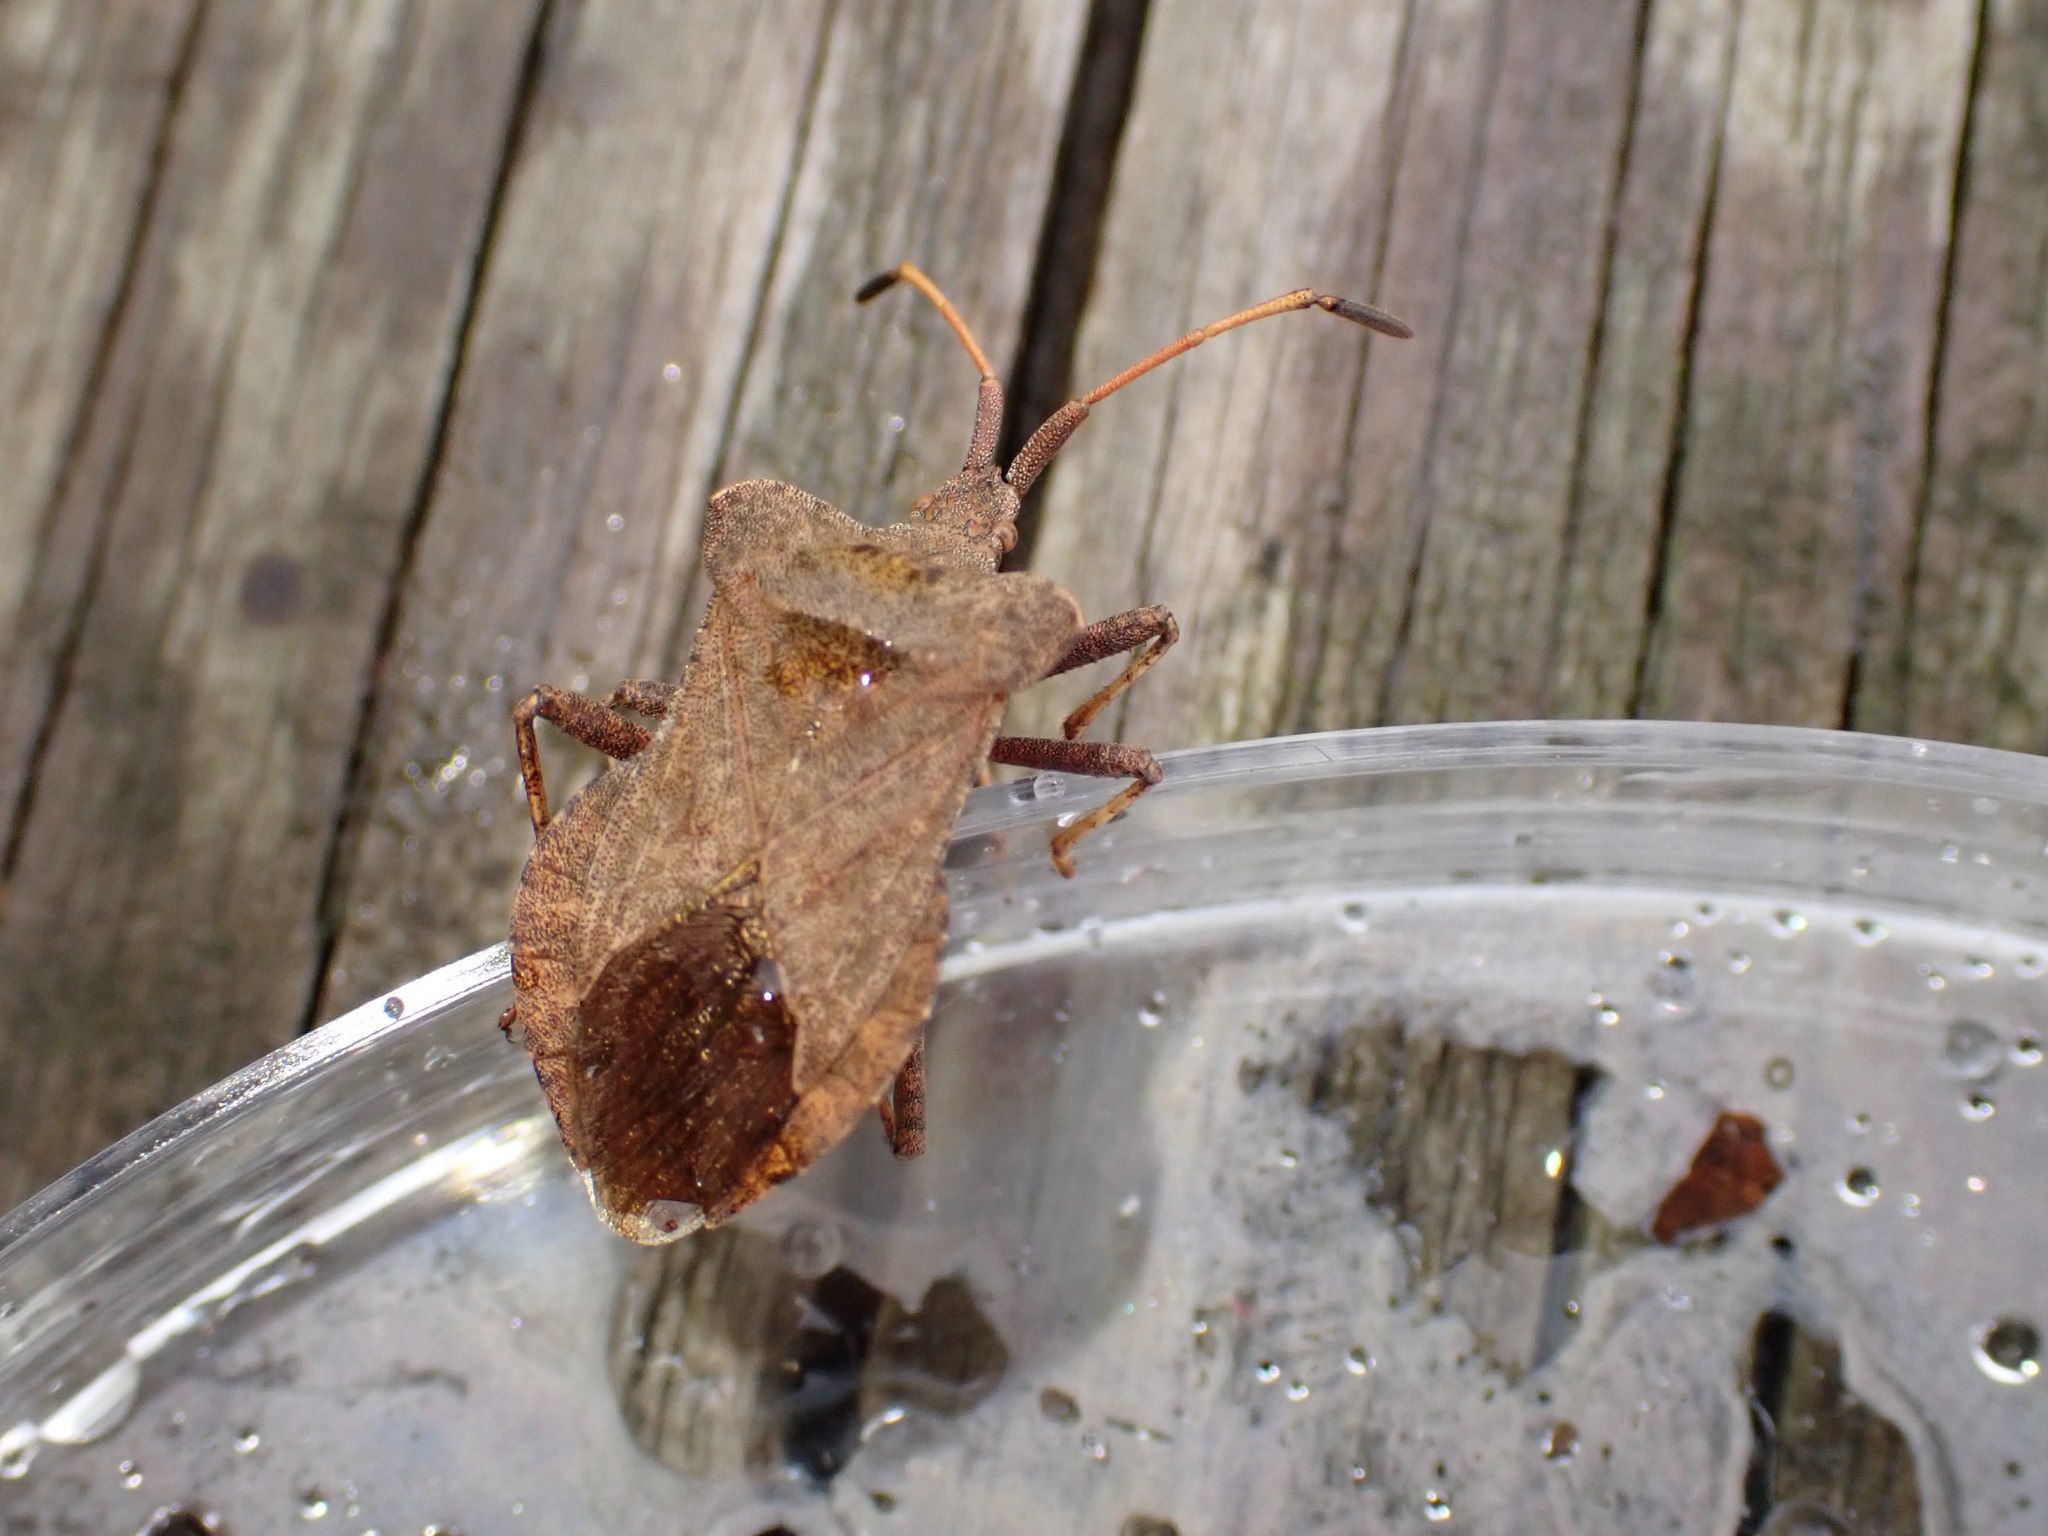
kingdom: Animalia
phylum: Arthropoda
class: Insecta
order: Hemiptera
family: Coreidae
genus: Coreus
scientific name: Coreus marginatus
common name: Dock bug
